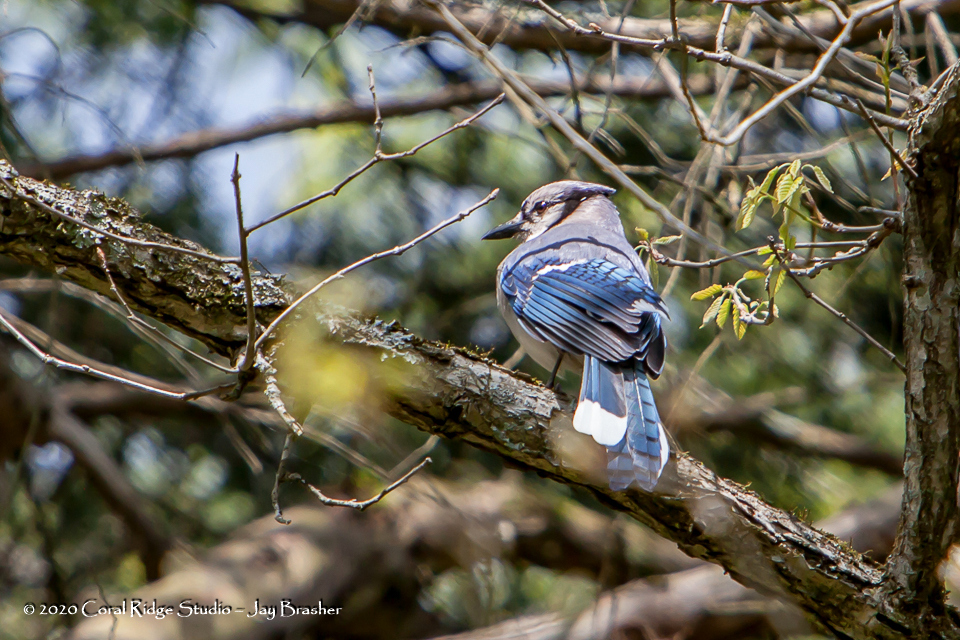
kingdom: Animalia
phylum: Chordata
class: Aves
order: Passeriformes
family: Corvidae
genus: Cyanocitta
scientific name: Cyanocitta cristata
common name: Blue jay
